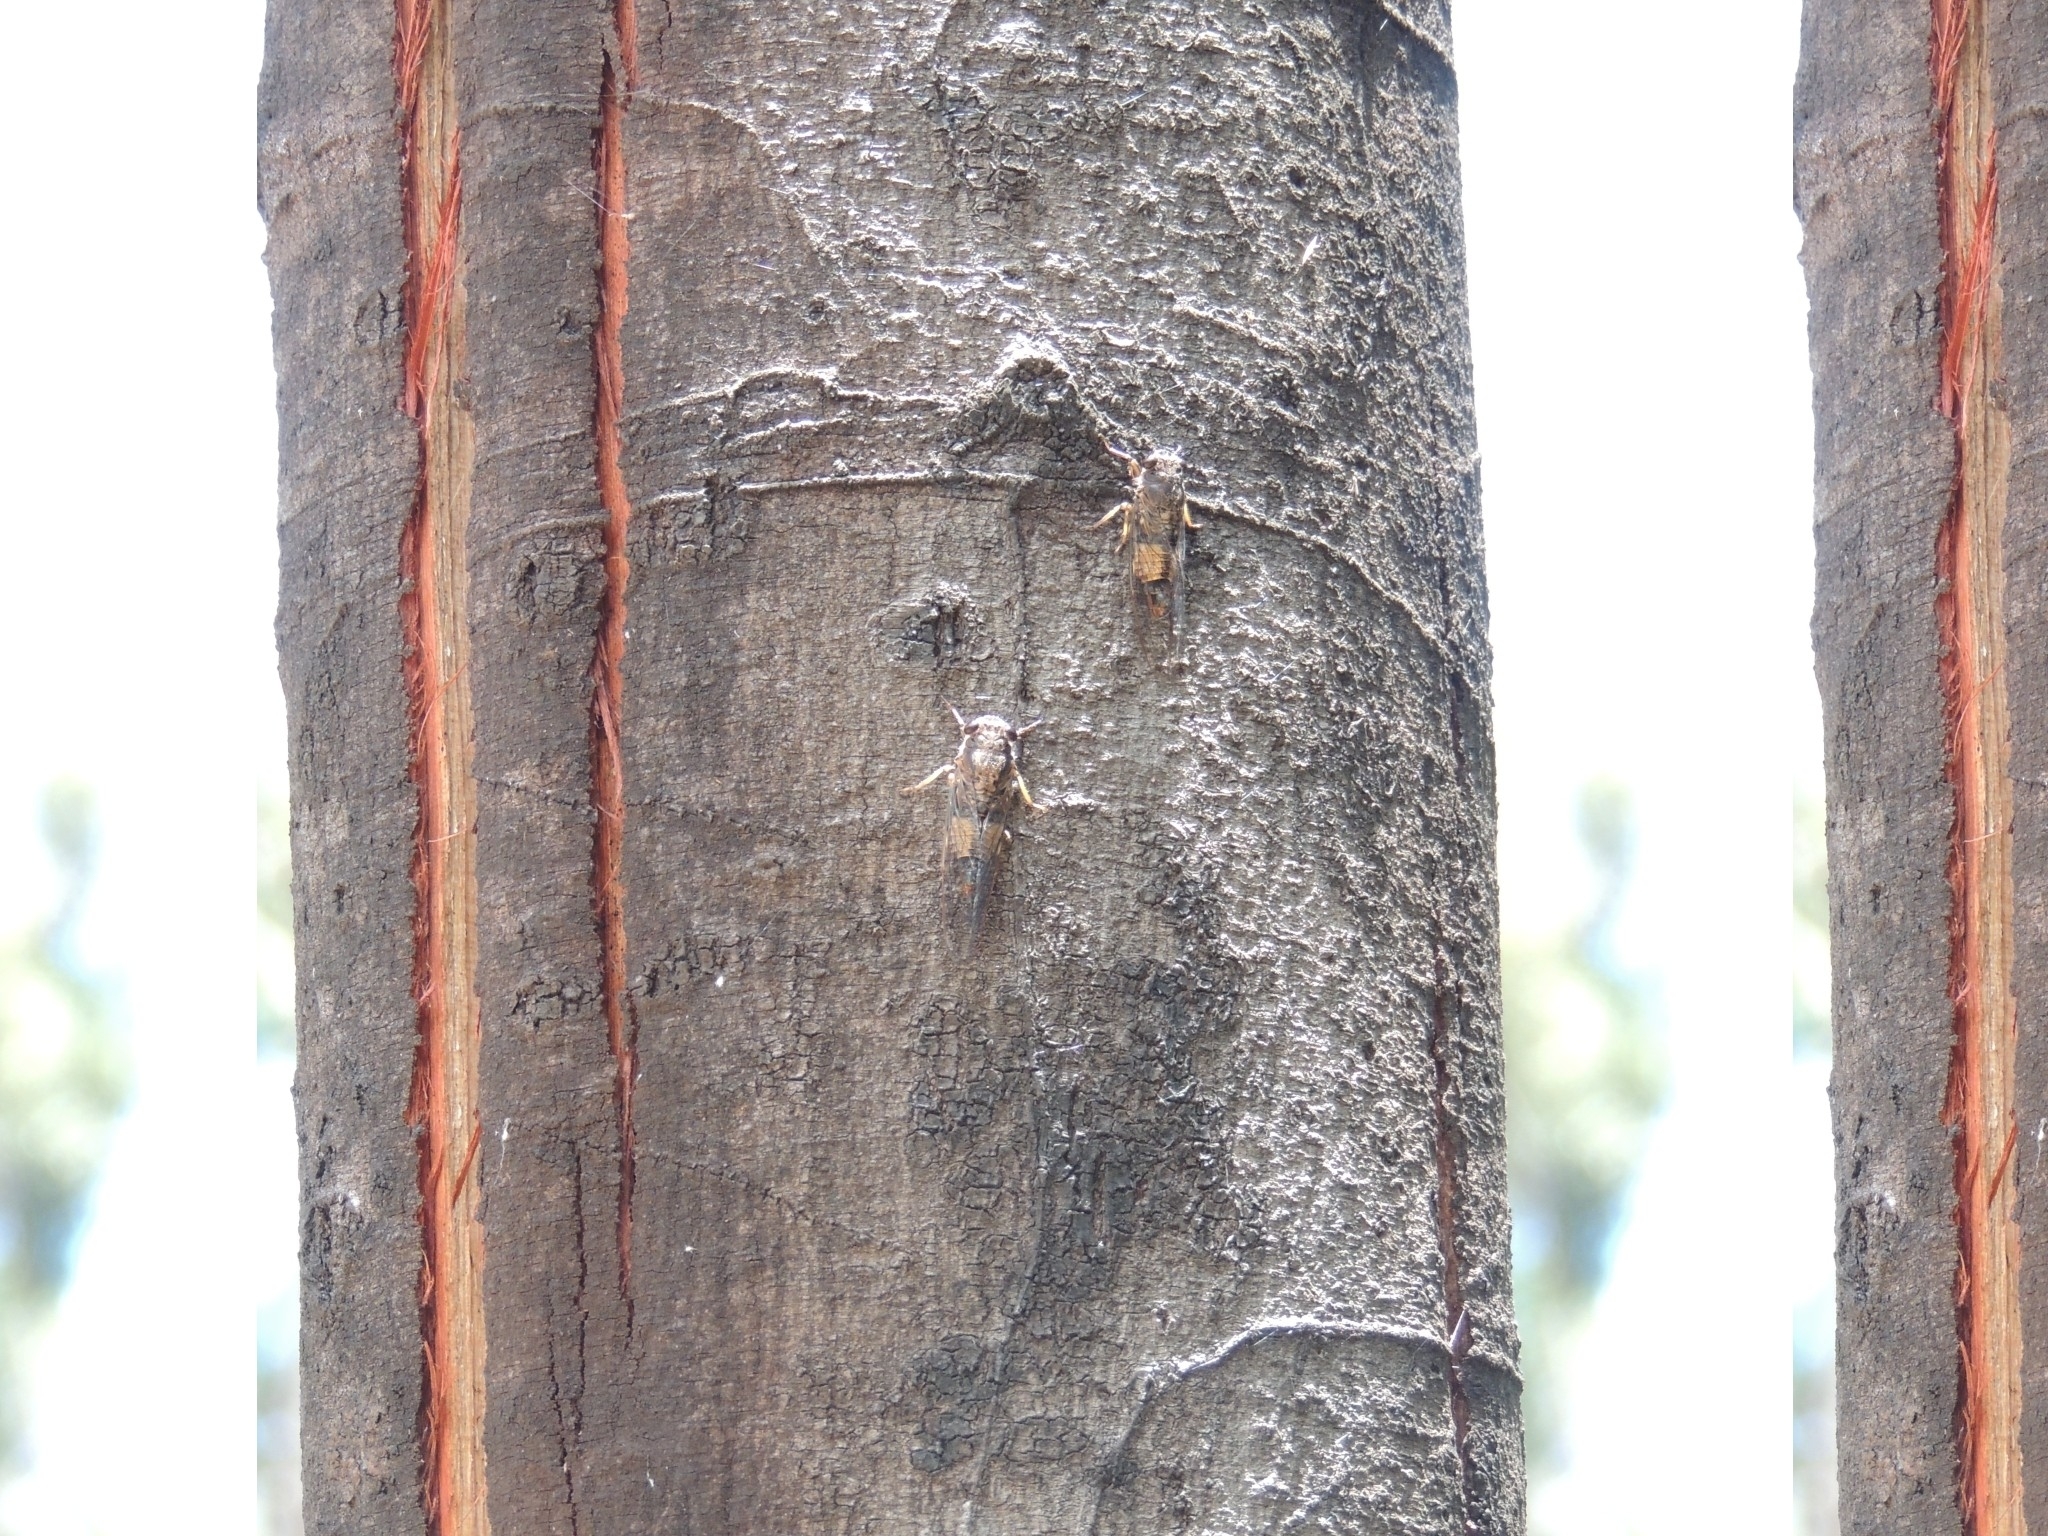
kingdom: Animalia
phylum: Arthropoda
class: Insecta
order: Hemiptera
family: Cicadidae
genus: Yoyetta
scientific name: Yoyetta repetens
